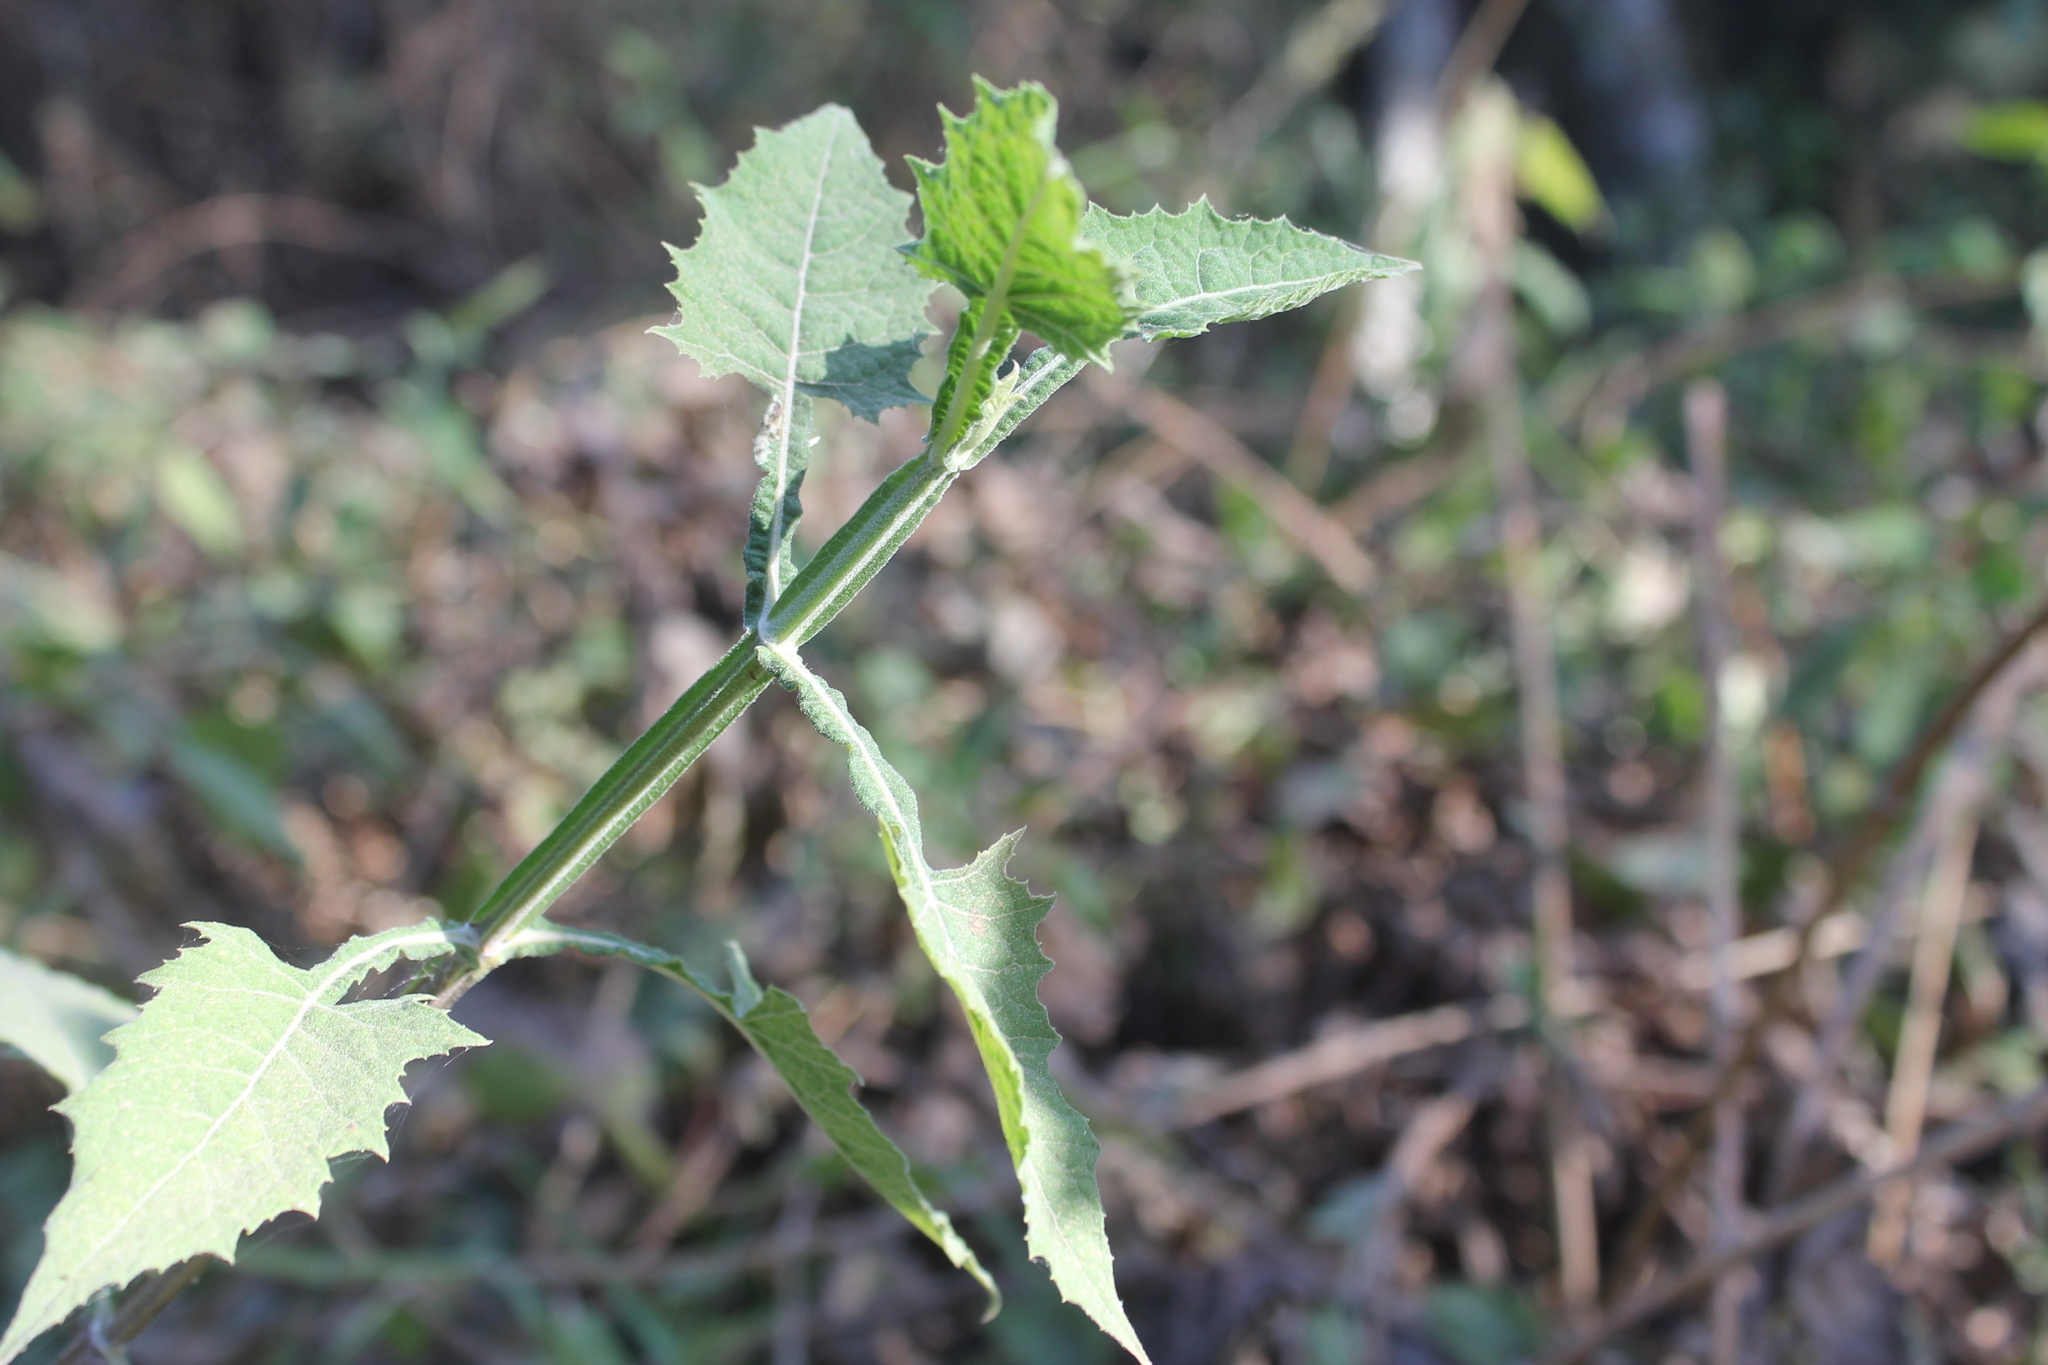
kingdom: Plantae
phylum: Tracheophyta
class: Magnoliopsida
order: Asterales
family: Asteraceae
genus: Verbesina
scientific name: Verbesina crocata
